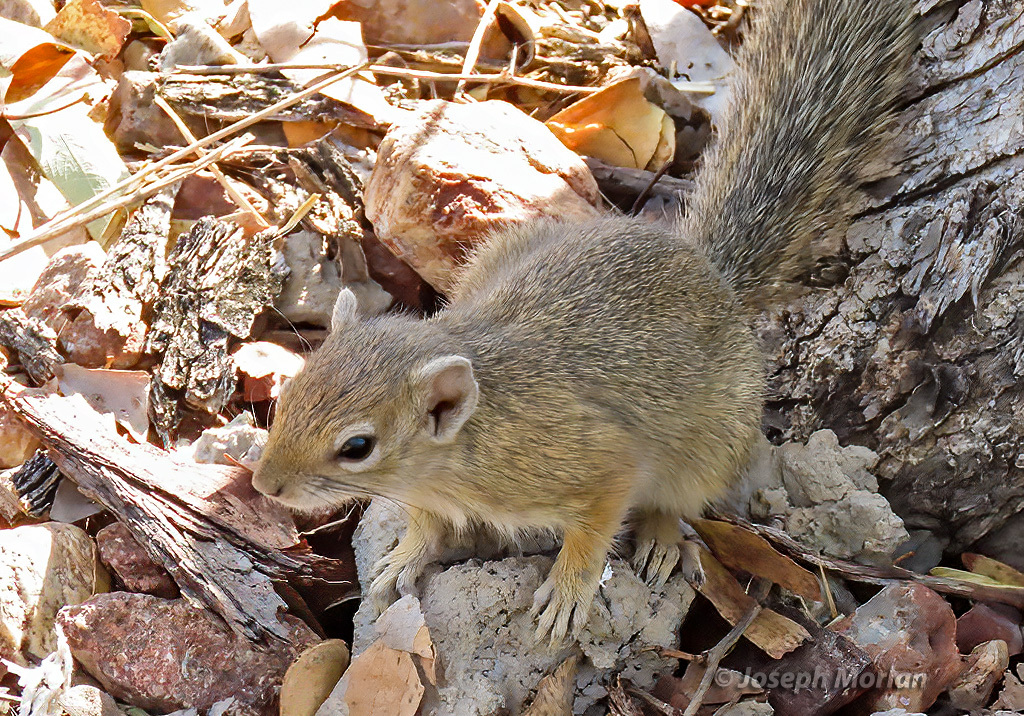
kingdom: Animalia
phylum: Chordata
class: Mammalia
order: Rodentia
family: Sciuridae
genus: Paraxerus
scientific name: Paraxerus cepapi
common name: Smith's bush squirrel
